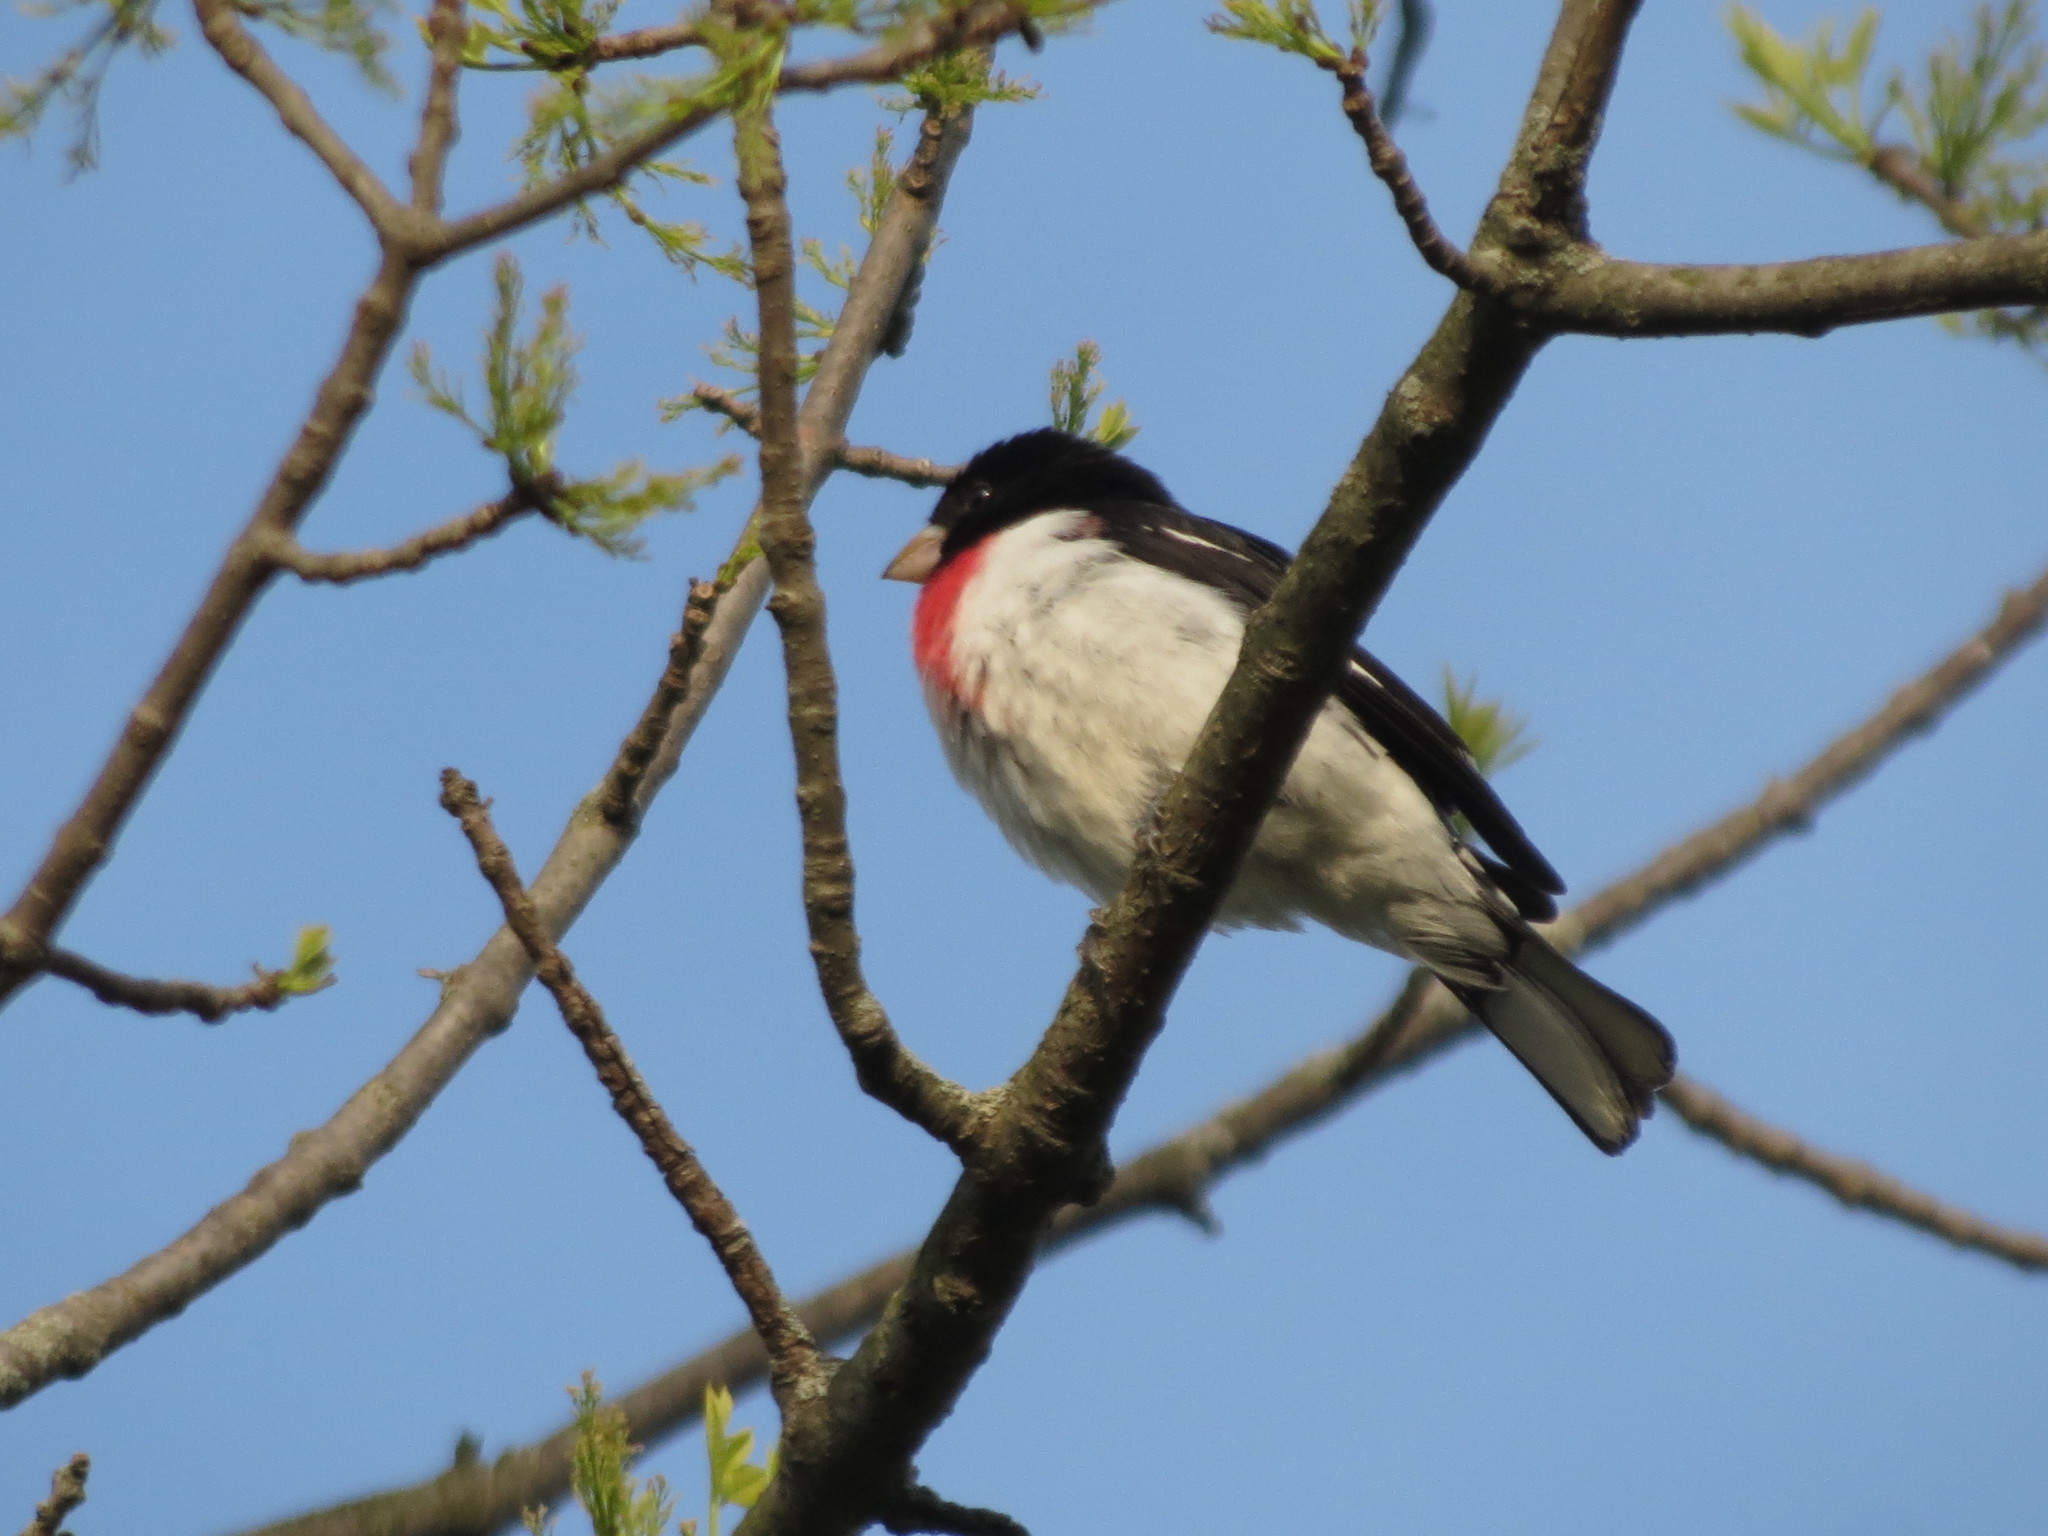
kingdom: Animalia
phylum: Chordata
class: Aves
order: Passeriformes
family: Cardinalidae
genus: Pheucticus
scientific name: Pheucticus ludovicianus
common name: Rose-breasted grosbeak
